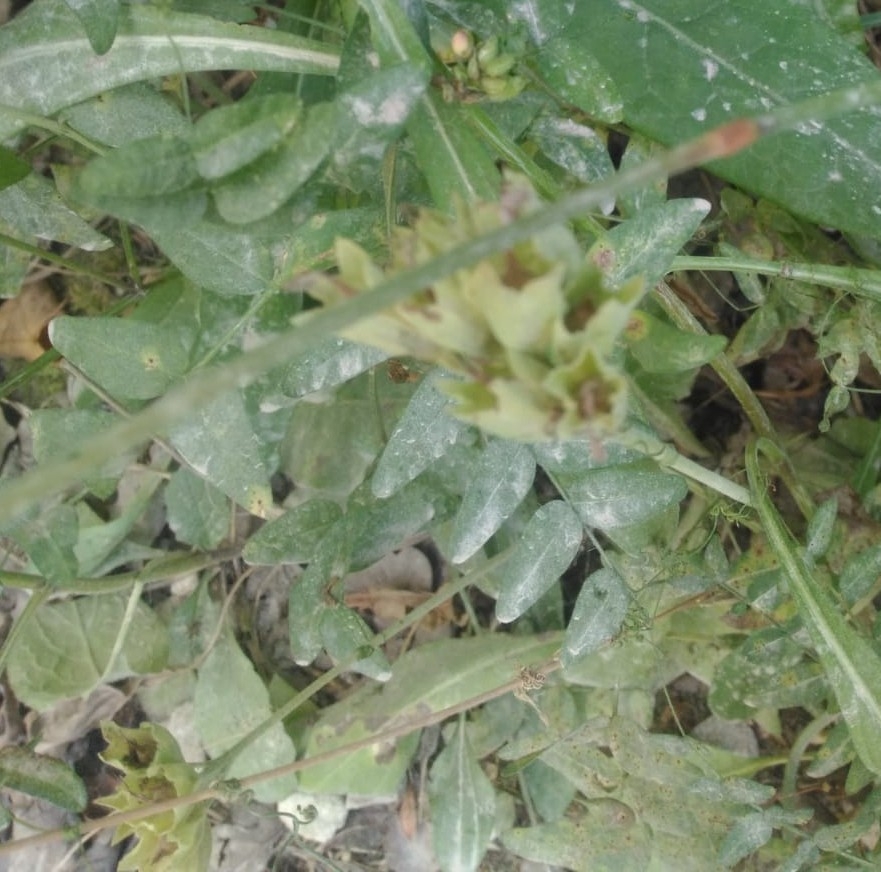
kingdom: Plantae
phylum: Tracheophyta
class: Magnoliopsida
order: Ericales
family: Primulaceae
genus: Primula
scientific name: Primula veris
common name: Cowslip
